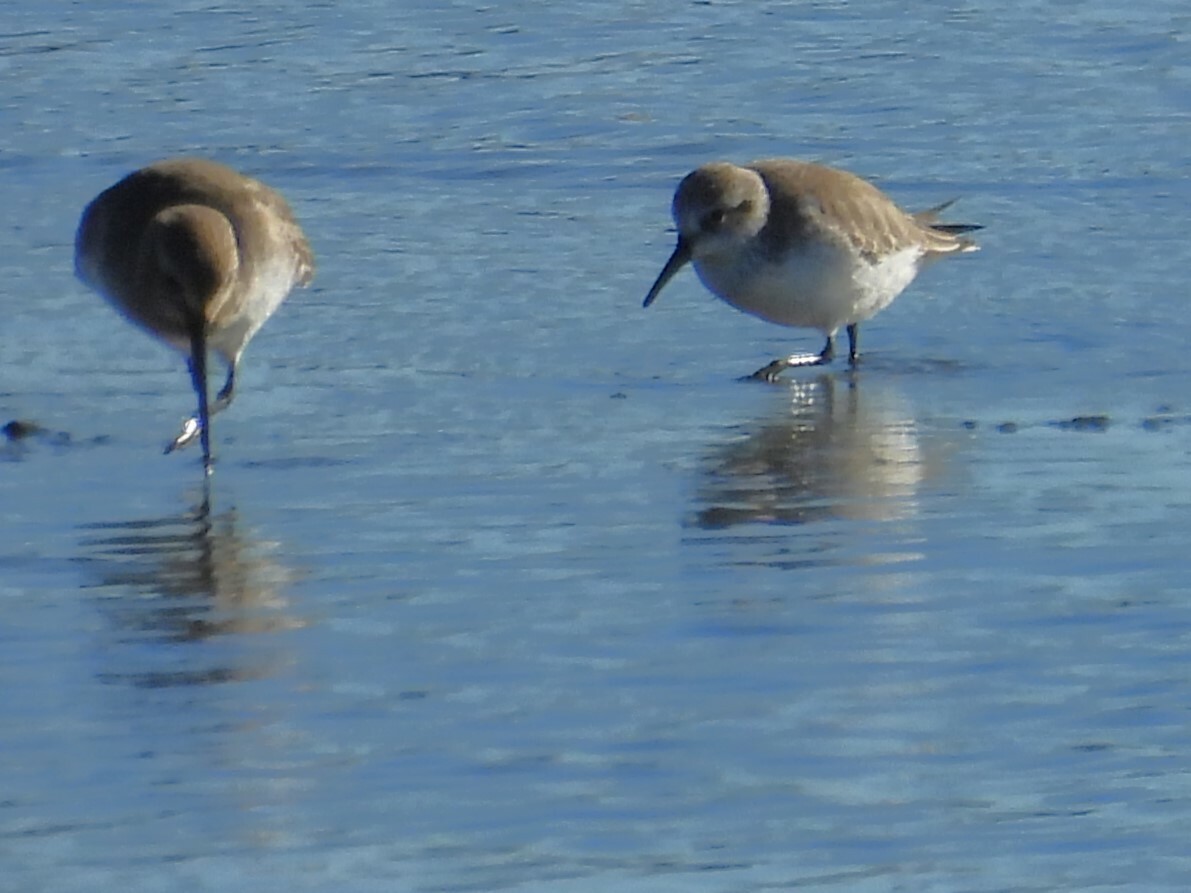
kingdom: Animalia
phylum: Chordata
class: Aves
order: Charadriiformes
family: Scolopacidae
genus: Calidris
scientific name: Calidris mauri
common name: Western sandpiper
